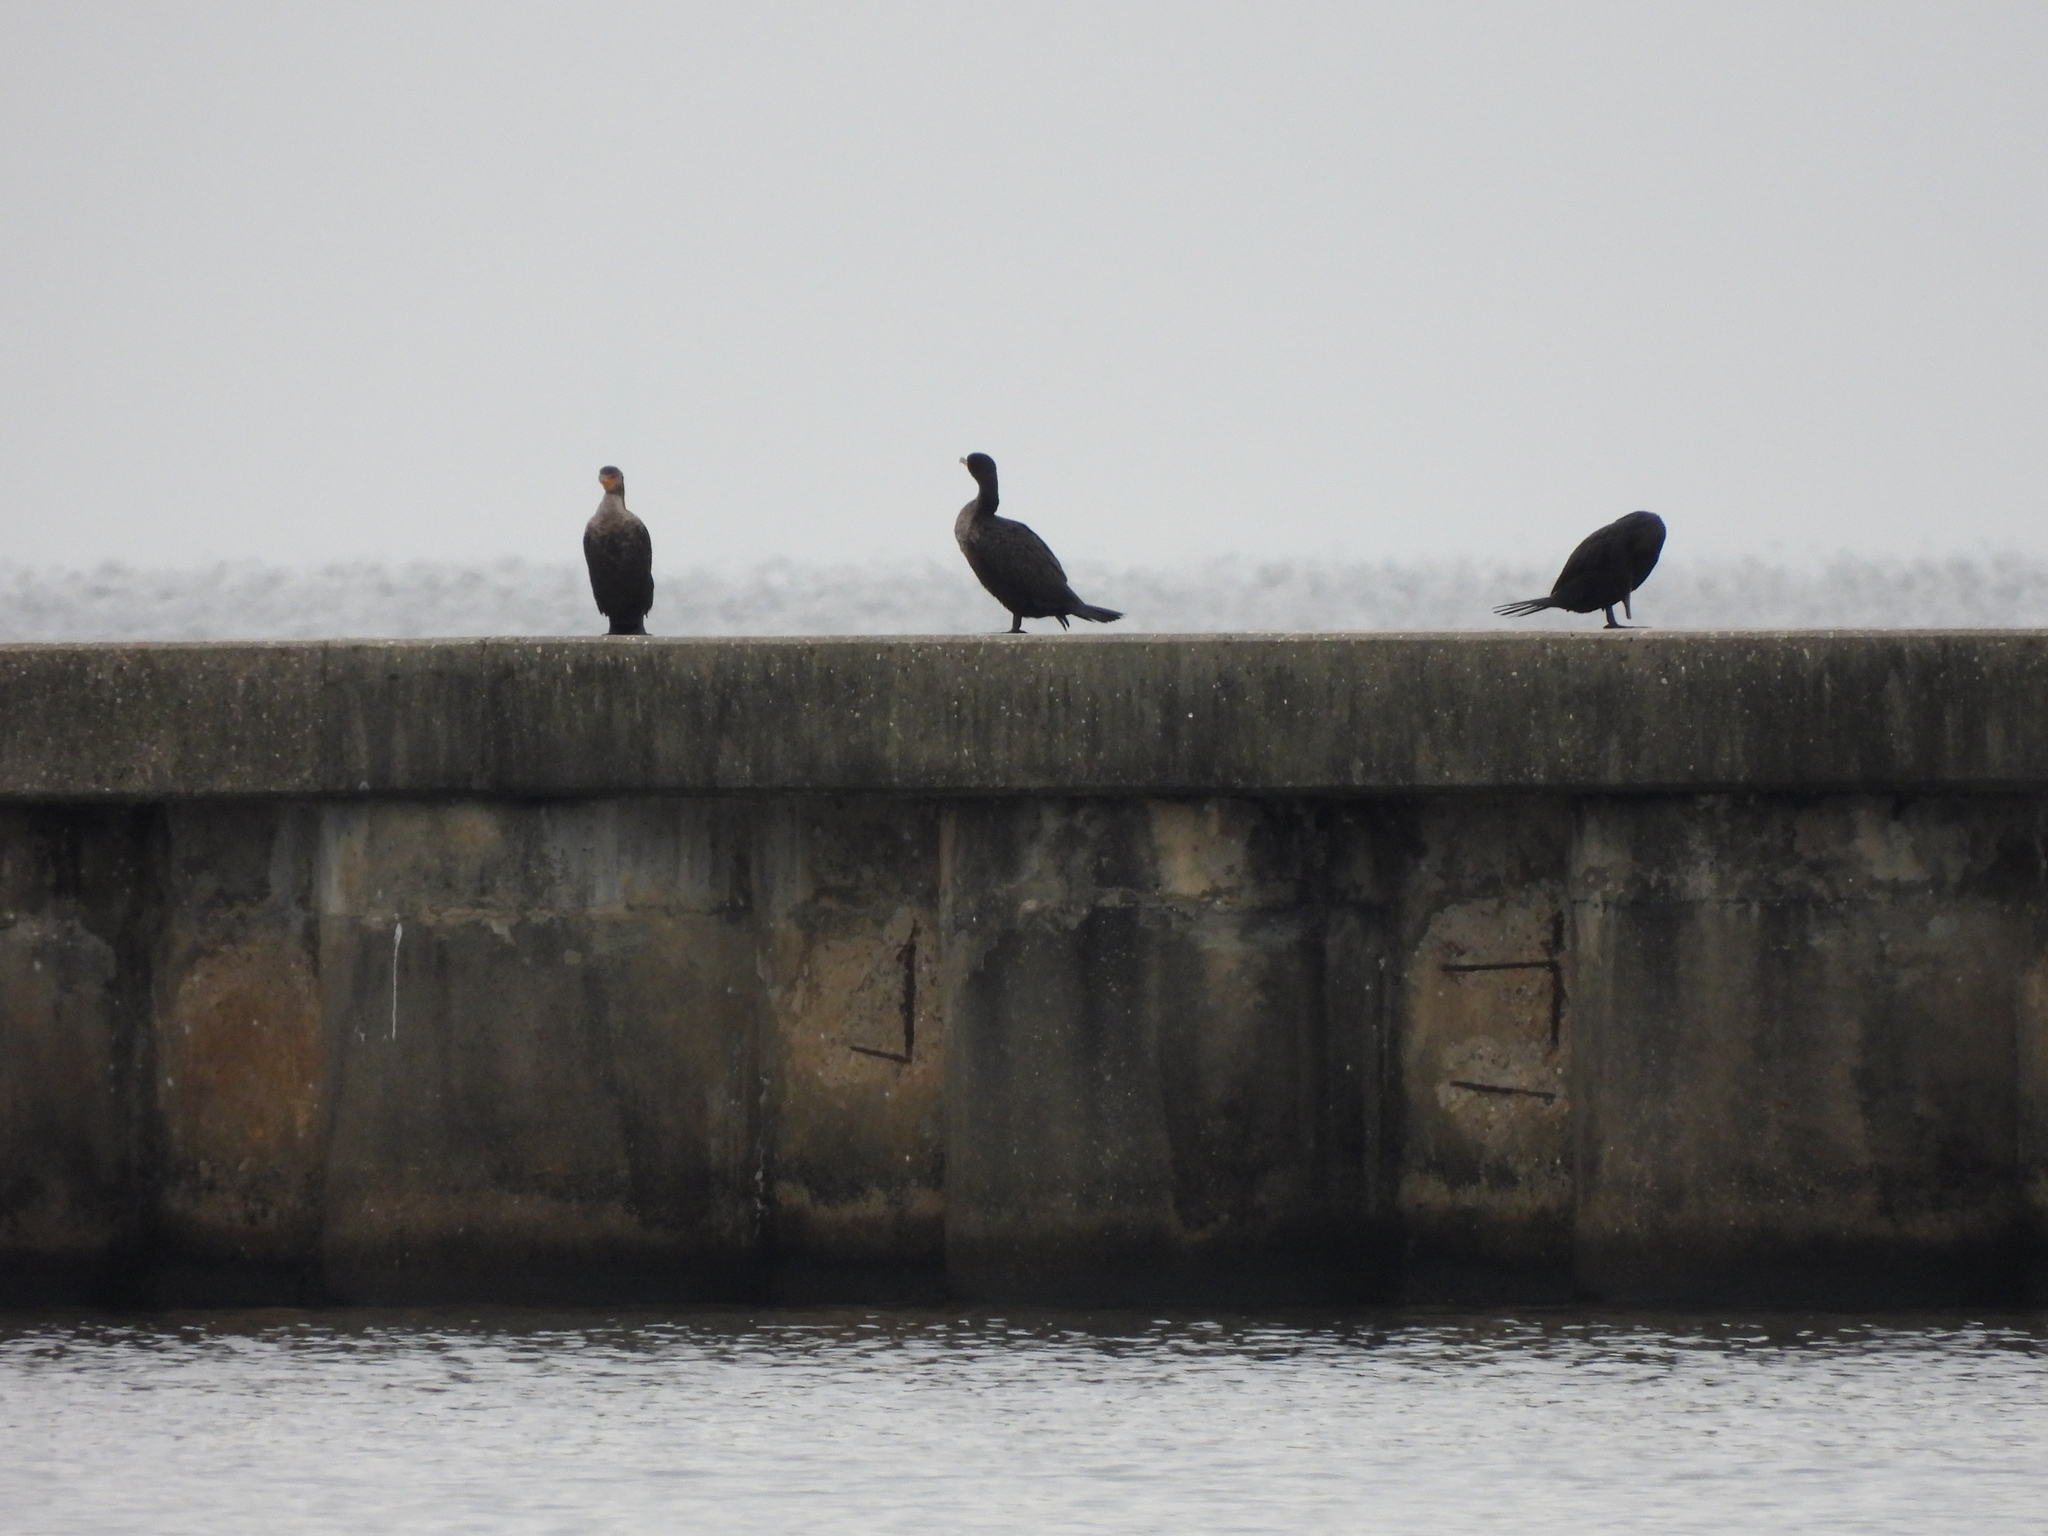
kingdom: Animalia
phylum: Chordata
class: Aves
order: Suliformes
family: Phalacrocoracidae
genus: Phalacrocorax
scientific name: Phalacrocorax auritus
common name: Double-crested cormorant
